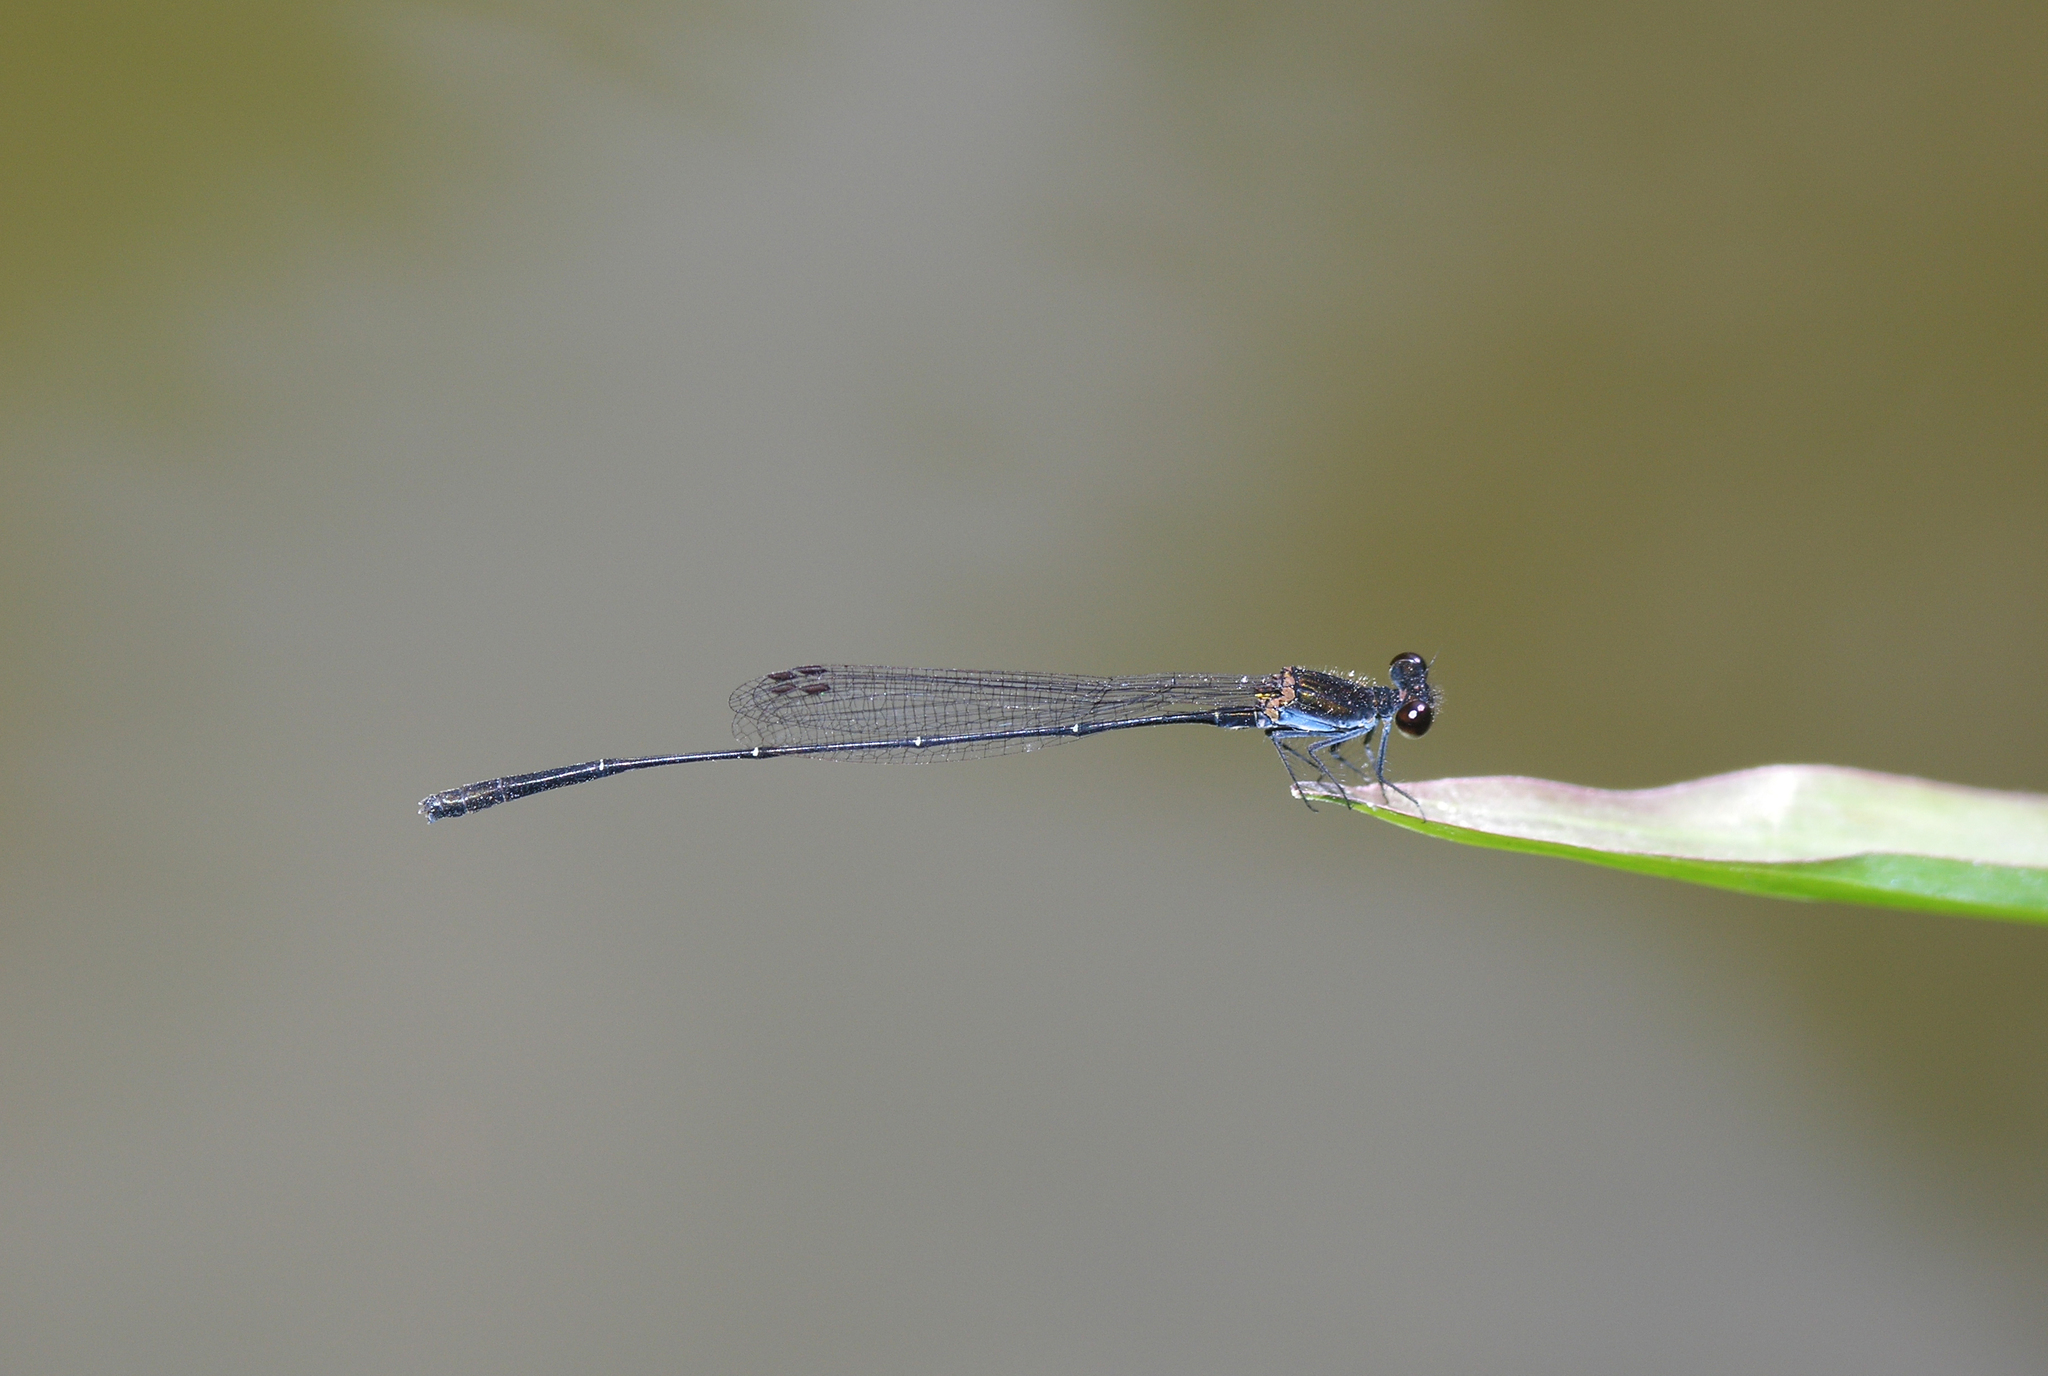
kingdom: Animalia
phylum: Arthropoda
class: Insecta
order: Odonata
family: Platycnemididae
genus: Prodasineura
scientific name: Prodasineura autumnalis
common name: Black threadtail
